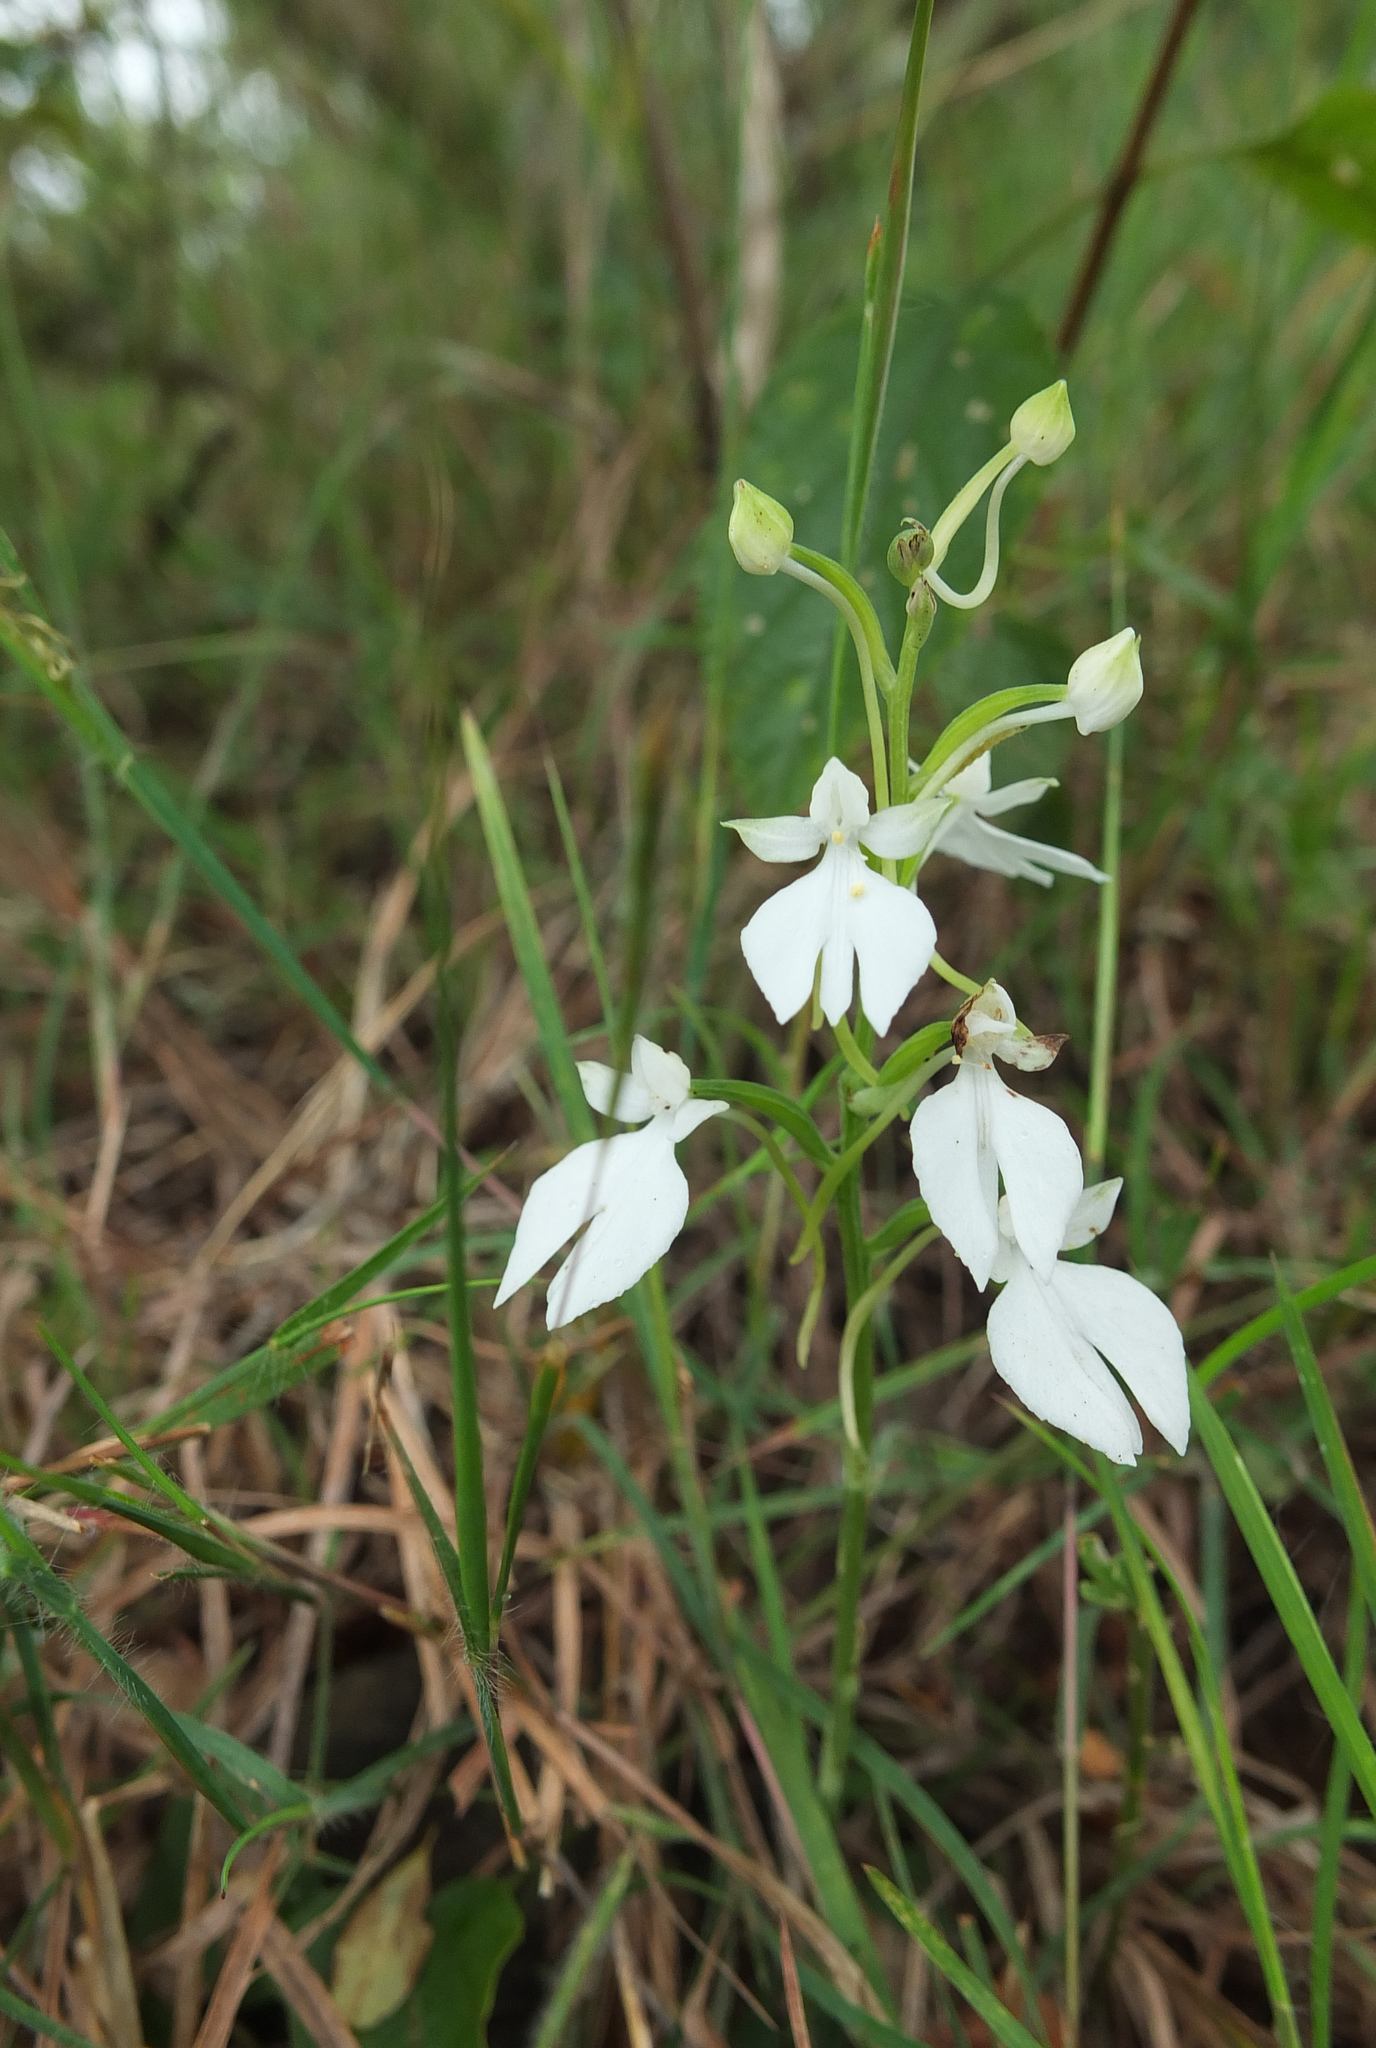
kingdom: Plantae
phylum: Tracheophyta
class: Liliopsida
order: Asparagales
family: Orchidaceae
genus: Habenaria
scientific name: Habenaria plantaginea
